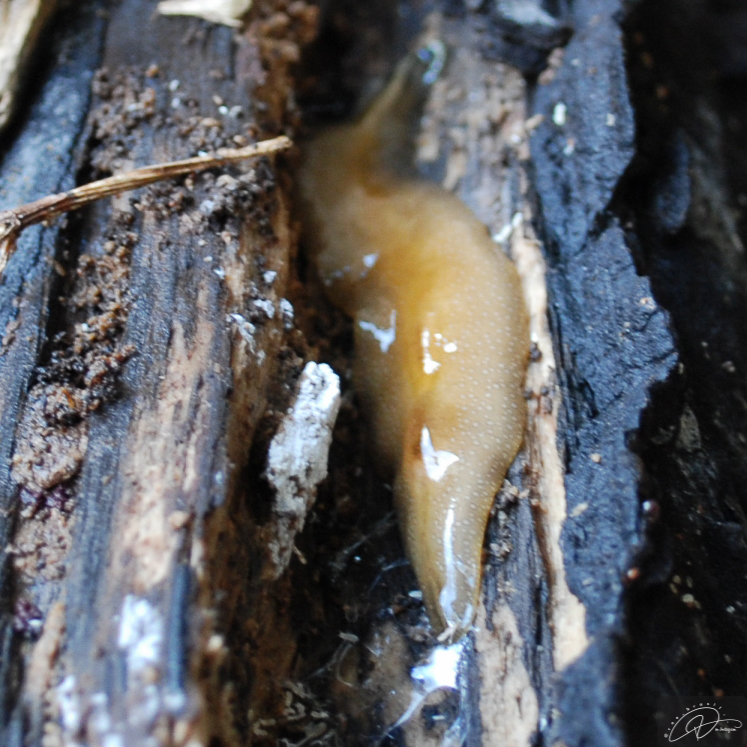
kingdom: Animalia
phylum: Platyhelminthes
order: Tricladida
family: Geoplanidae
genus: Obama
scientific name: Obama burmeisteri
